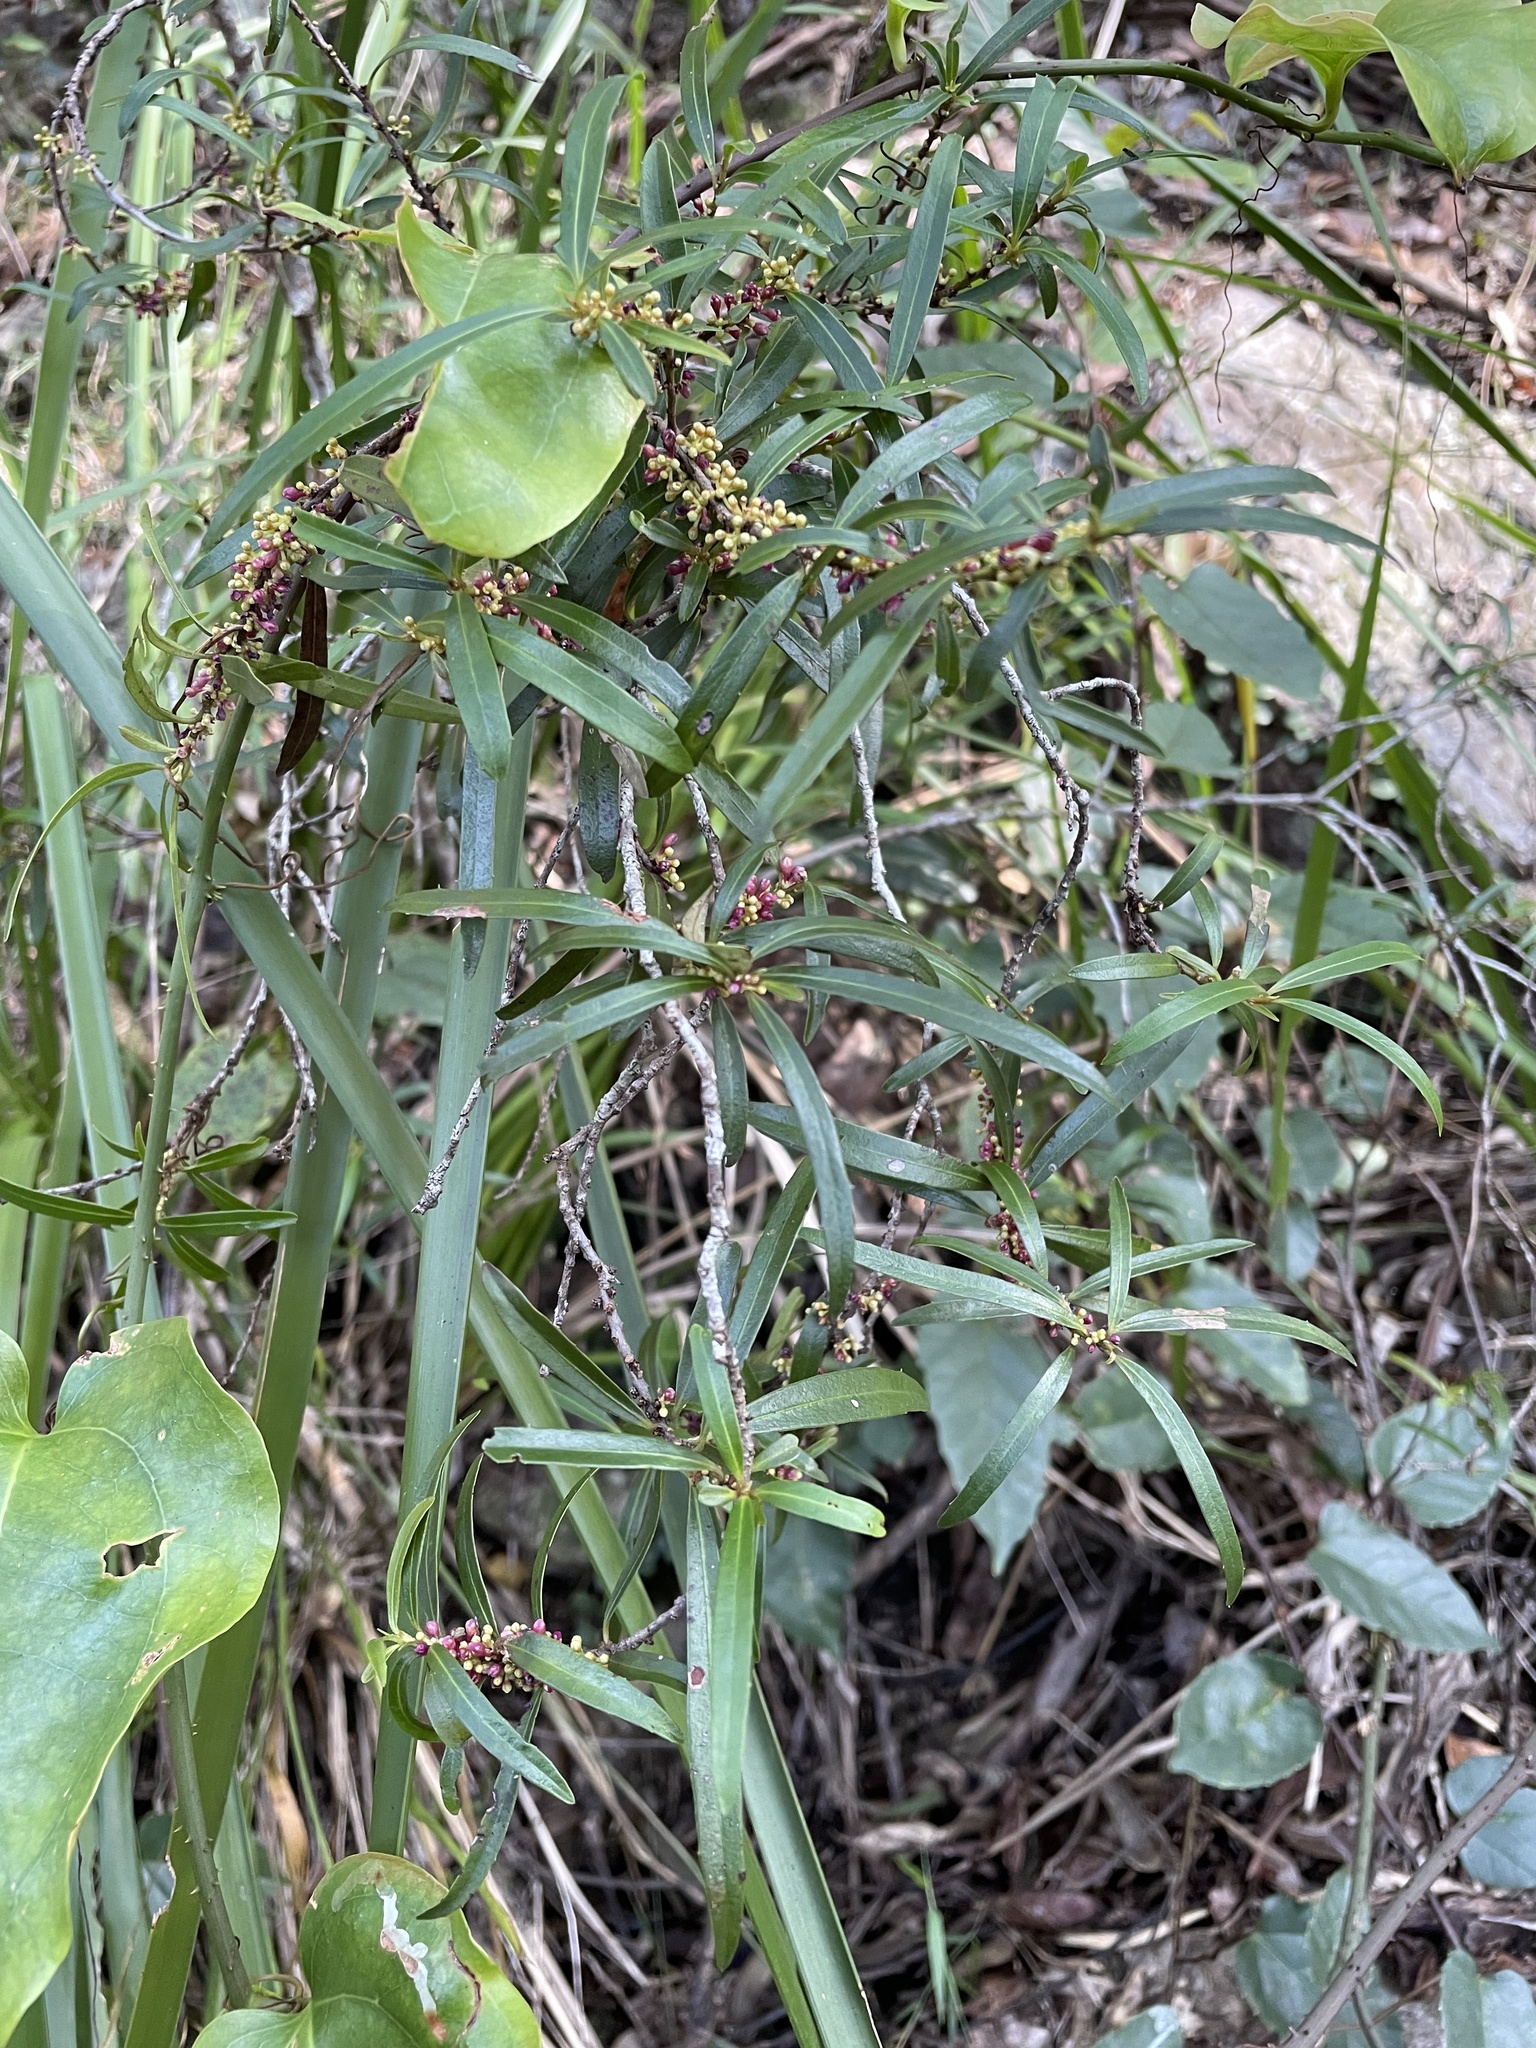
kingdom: Plantae
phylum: Tracheophyta
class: Magnoliopsida
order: Ericales
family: Primulaceae
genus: Myrsine
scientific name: Myrsine angusta
